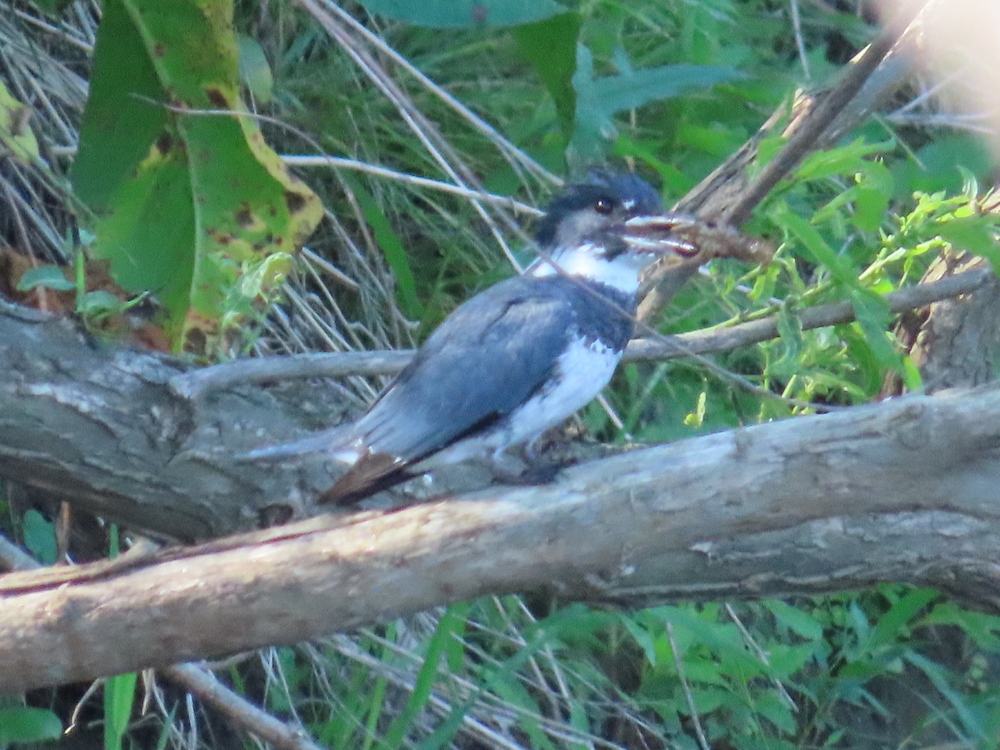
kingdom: Animalia
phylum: Chordata
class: Aves
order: Coraciiformes
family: Alcedinidae
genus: Megaceryle
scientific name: Megaceryle alcyon
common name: Belted kingfisher
